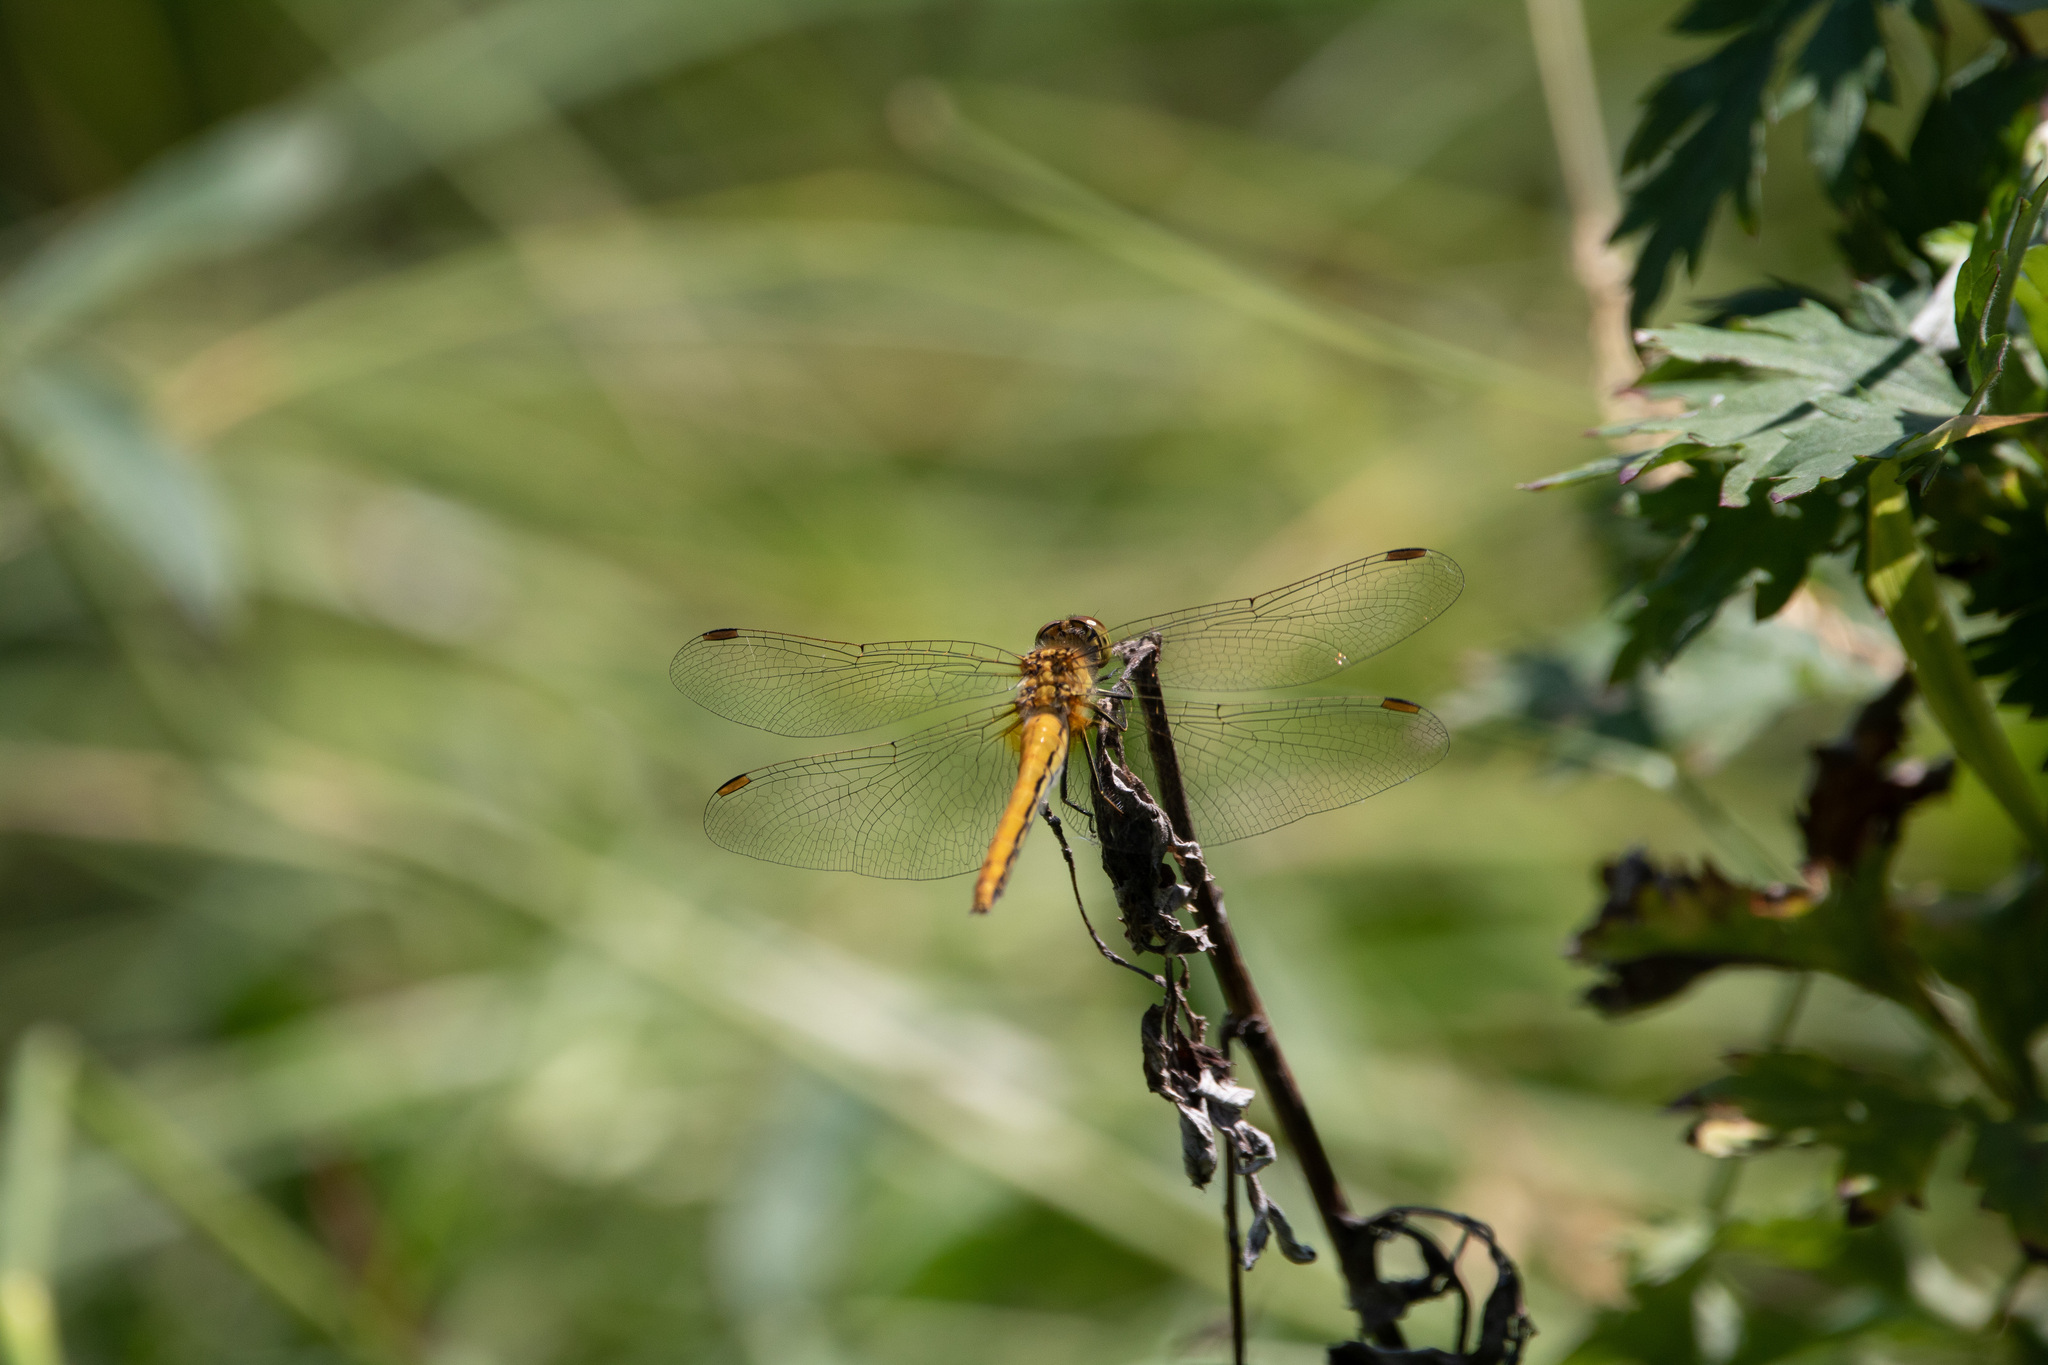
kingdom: Animalia
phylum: Arthropoda
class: Insecta
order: Odonata
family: Libellulidae
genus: Sympetrum
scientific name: Sympetrum sanguineum
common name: Ruddy darter
